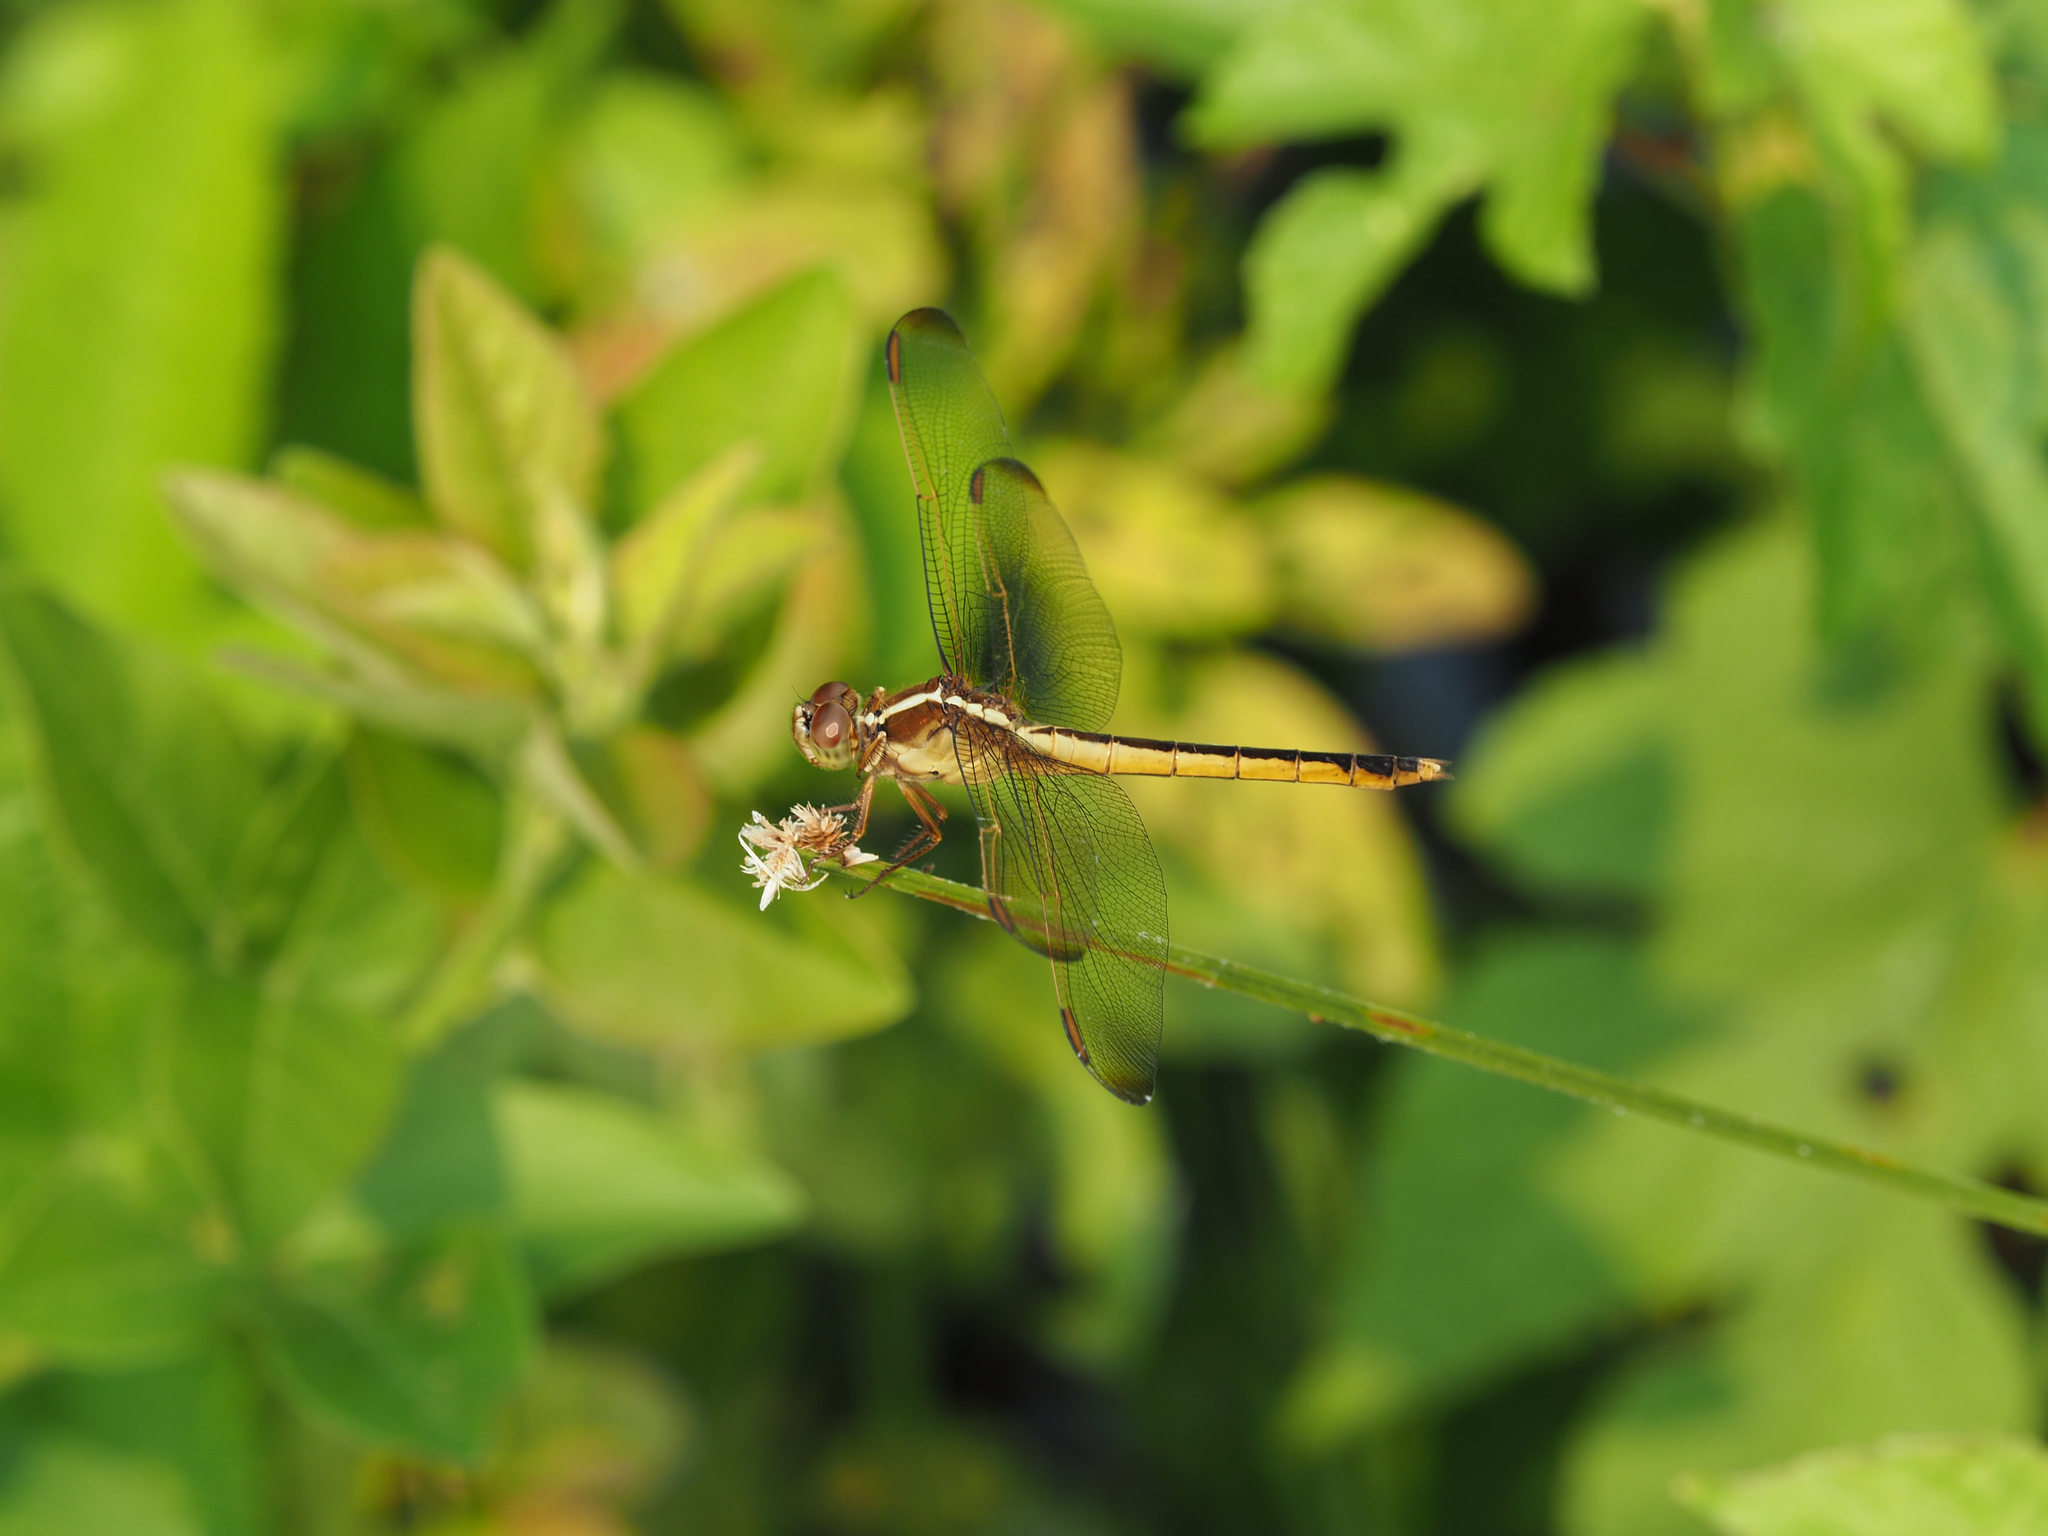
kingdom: Animalia
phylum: Arthropoda
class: Insecta
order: Odonata
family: Libellulidae
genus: Libellula
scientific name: Libellula needhami
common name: Needham's skimmer
